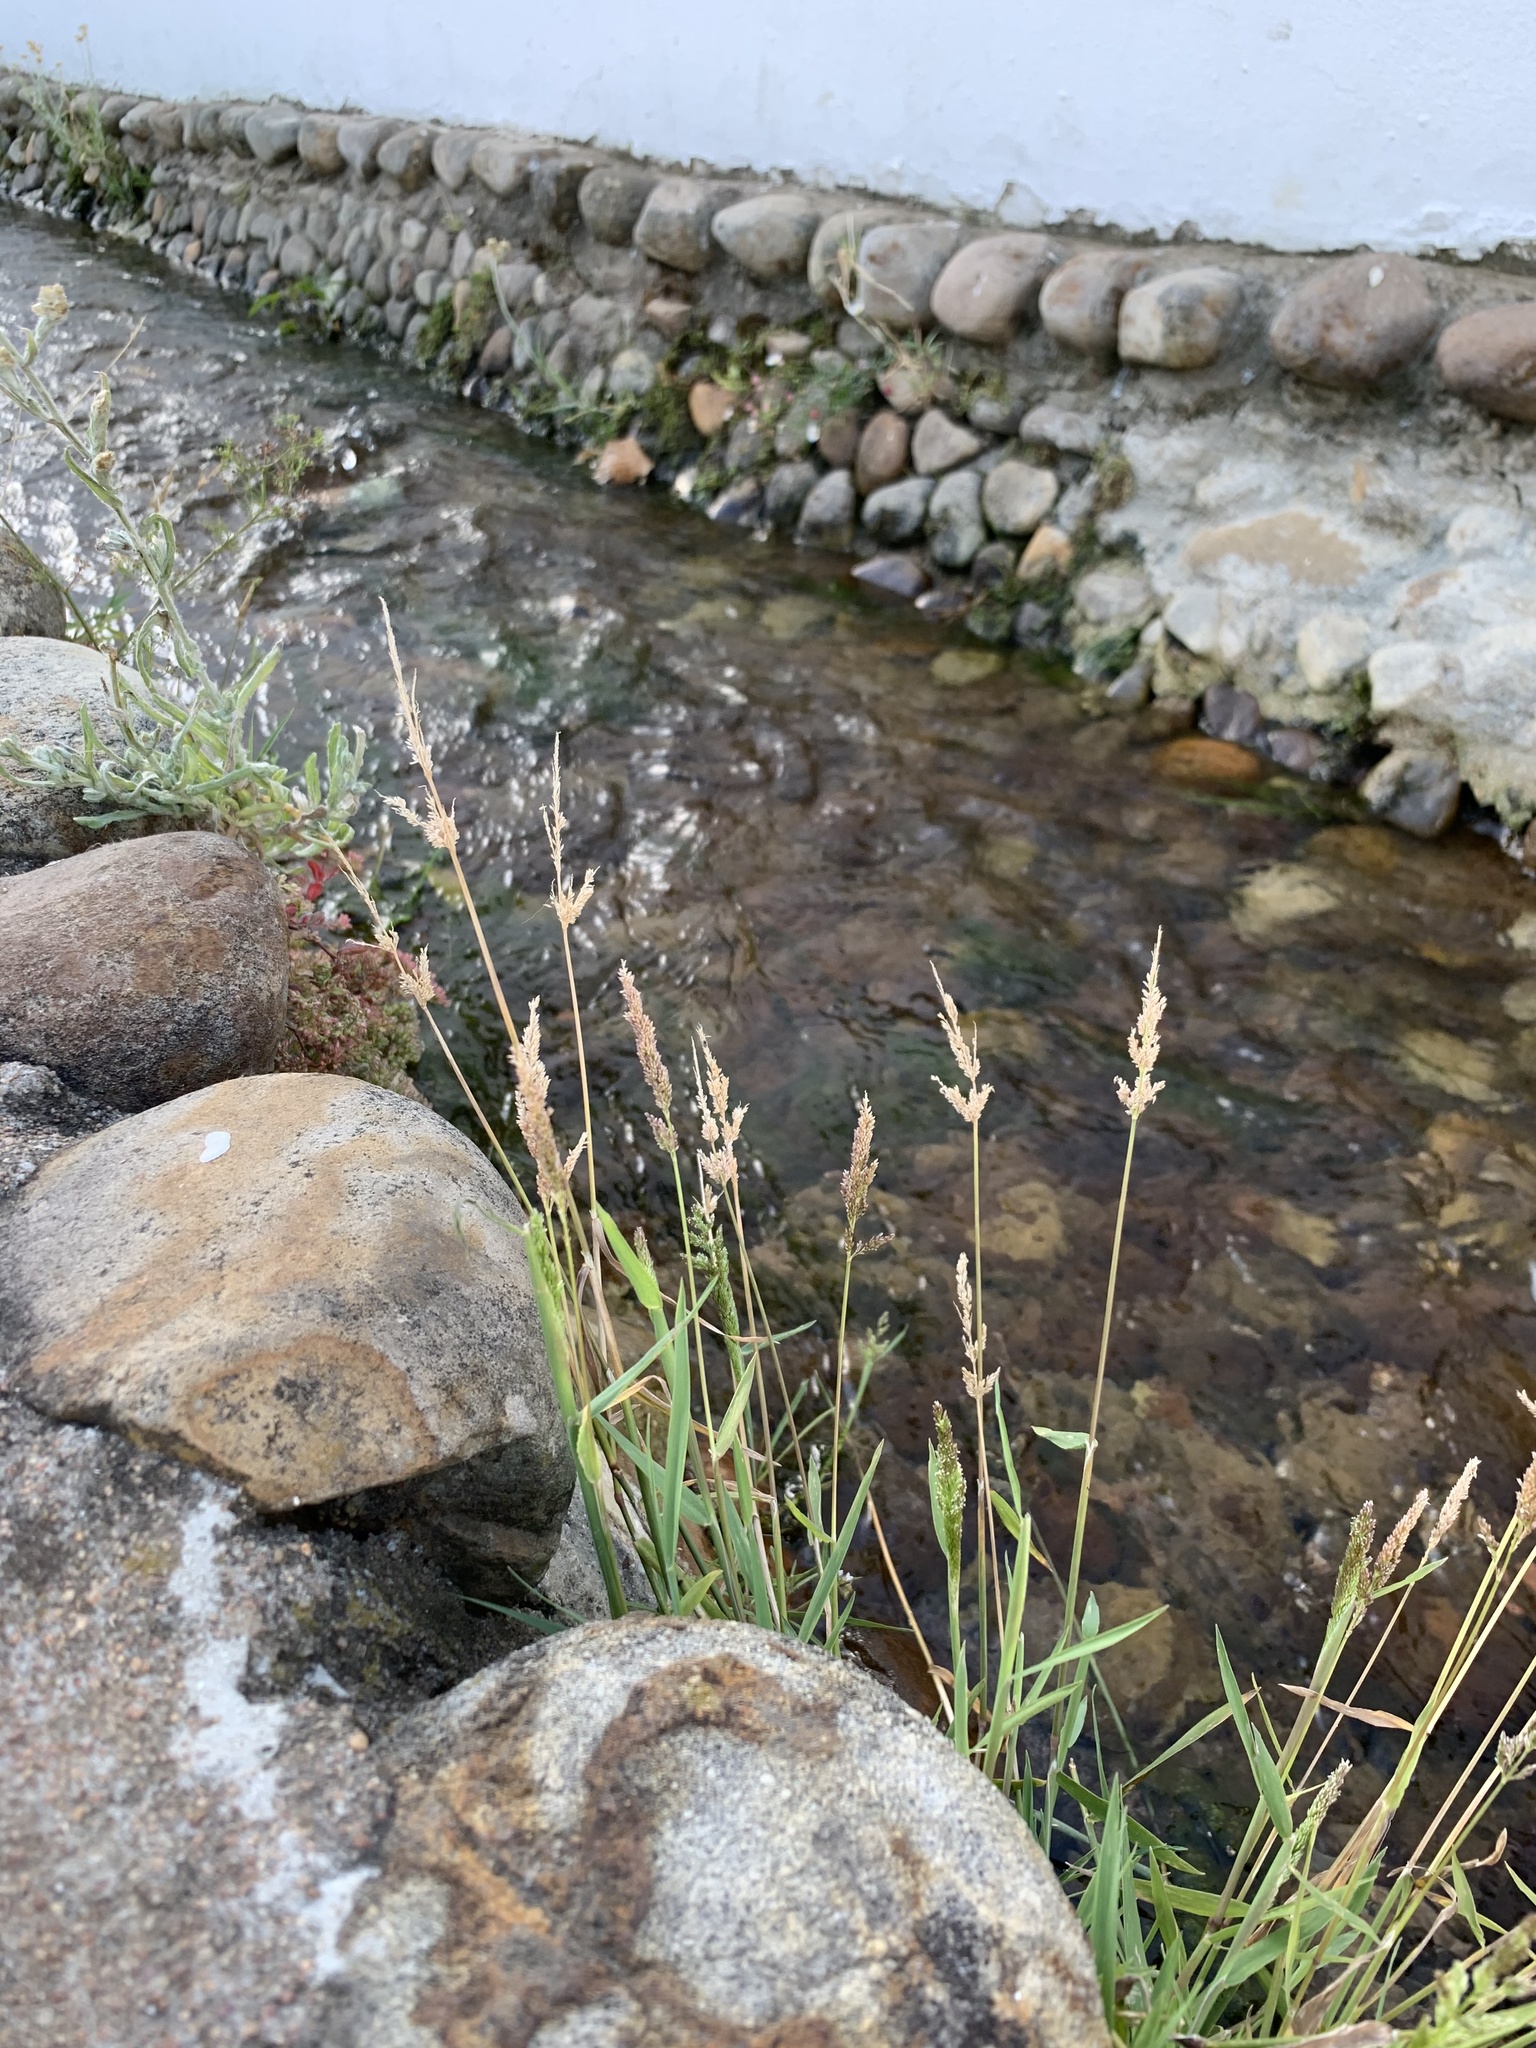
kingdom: Plantae
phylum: Tracheophyta
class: Liliopsida
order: Poales
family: Poaceae
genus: Polypogon
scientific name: Polypogon viridis
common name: Water bent
